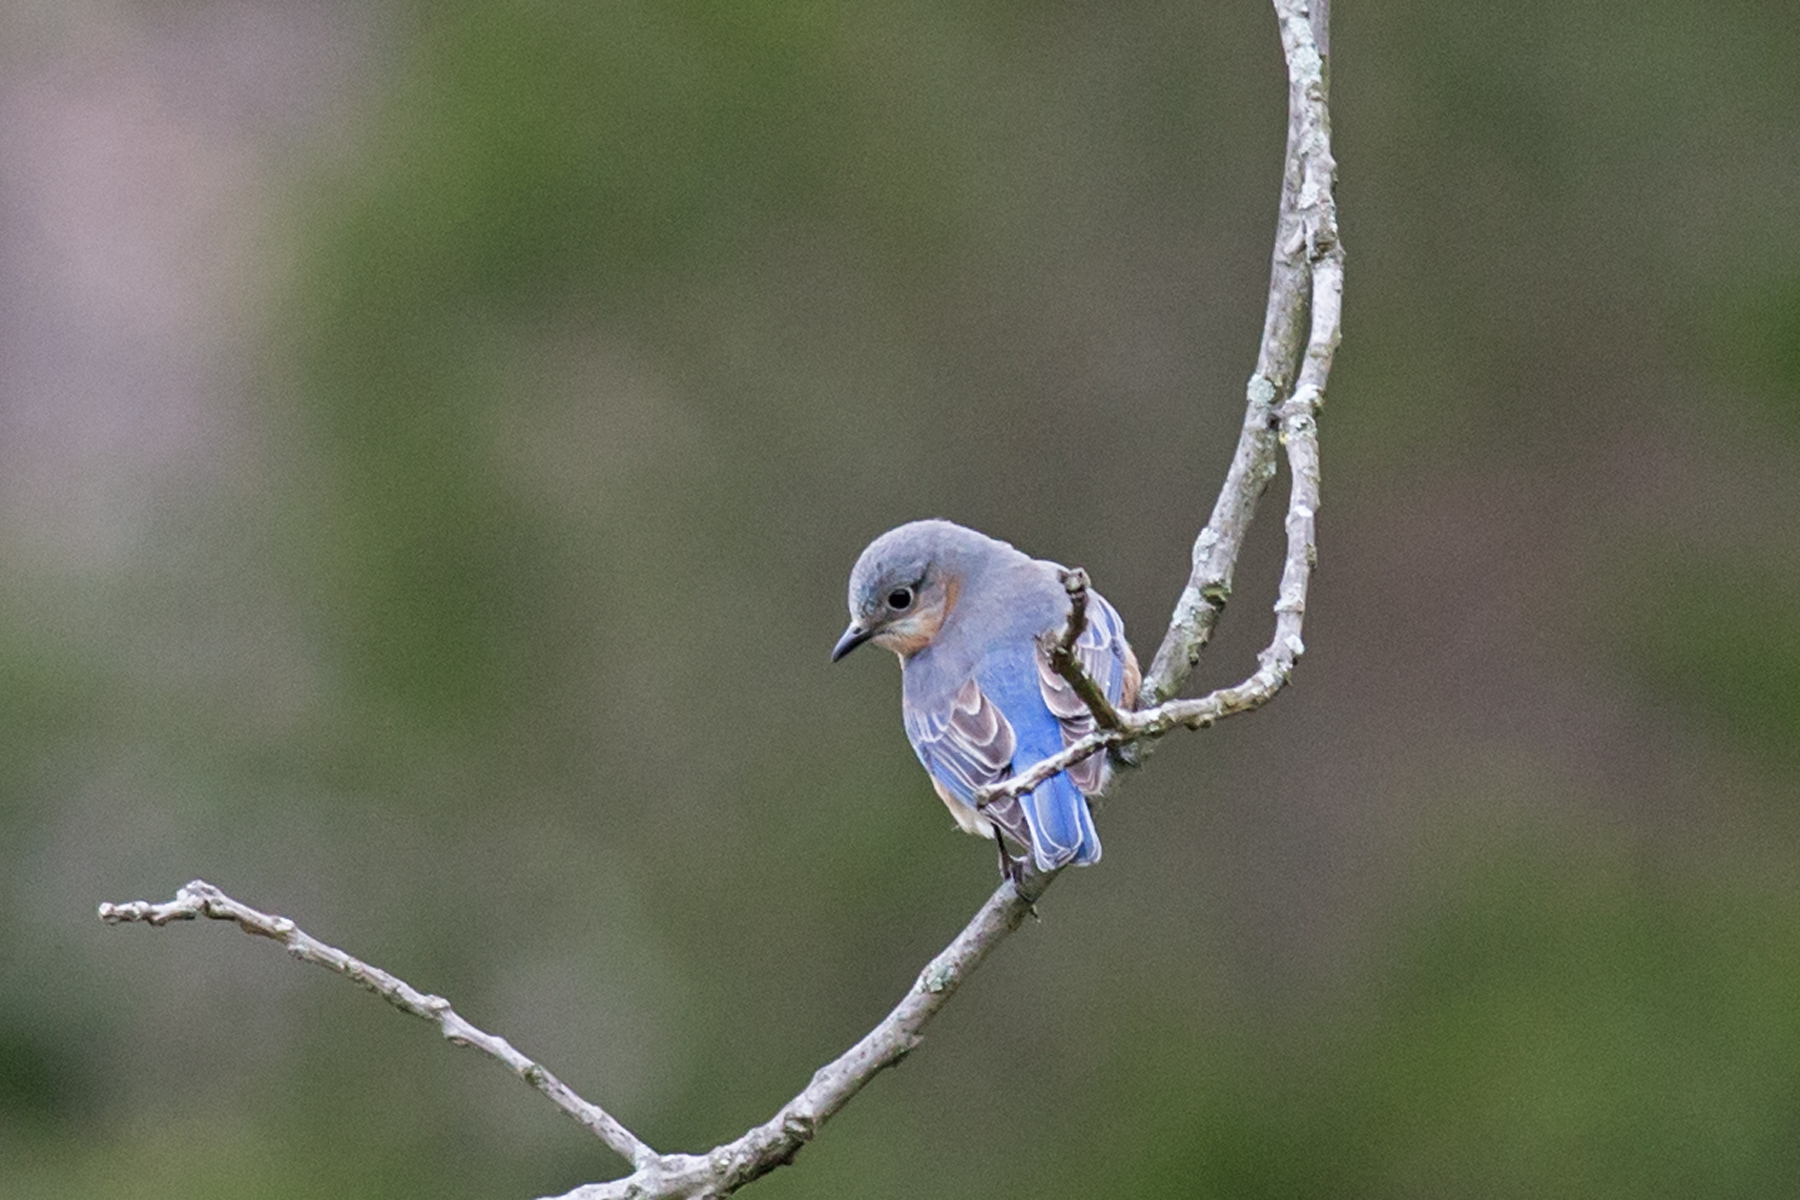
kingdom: Animalia
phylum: Chordata
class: Aves
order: Passeriformes
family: Turdidae
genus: Sialia
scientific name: Sialia sialis
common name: Eastern bluebird
